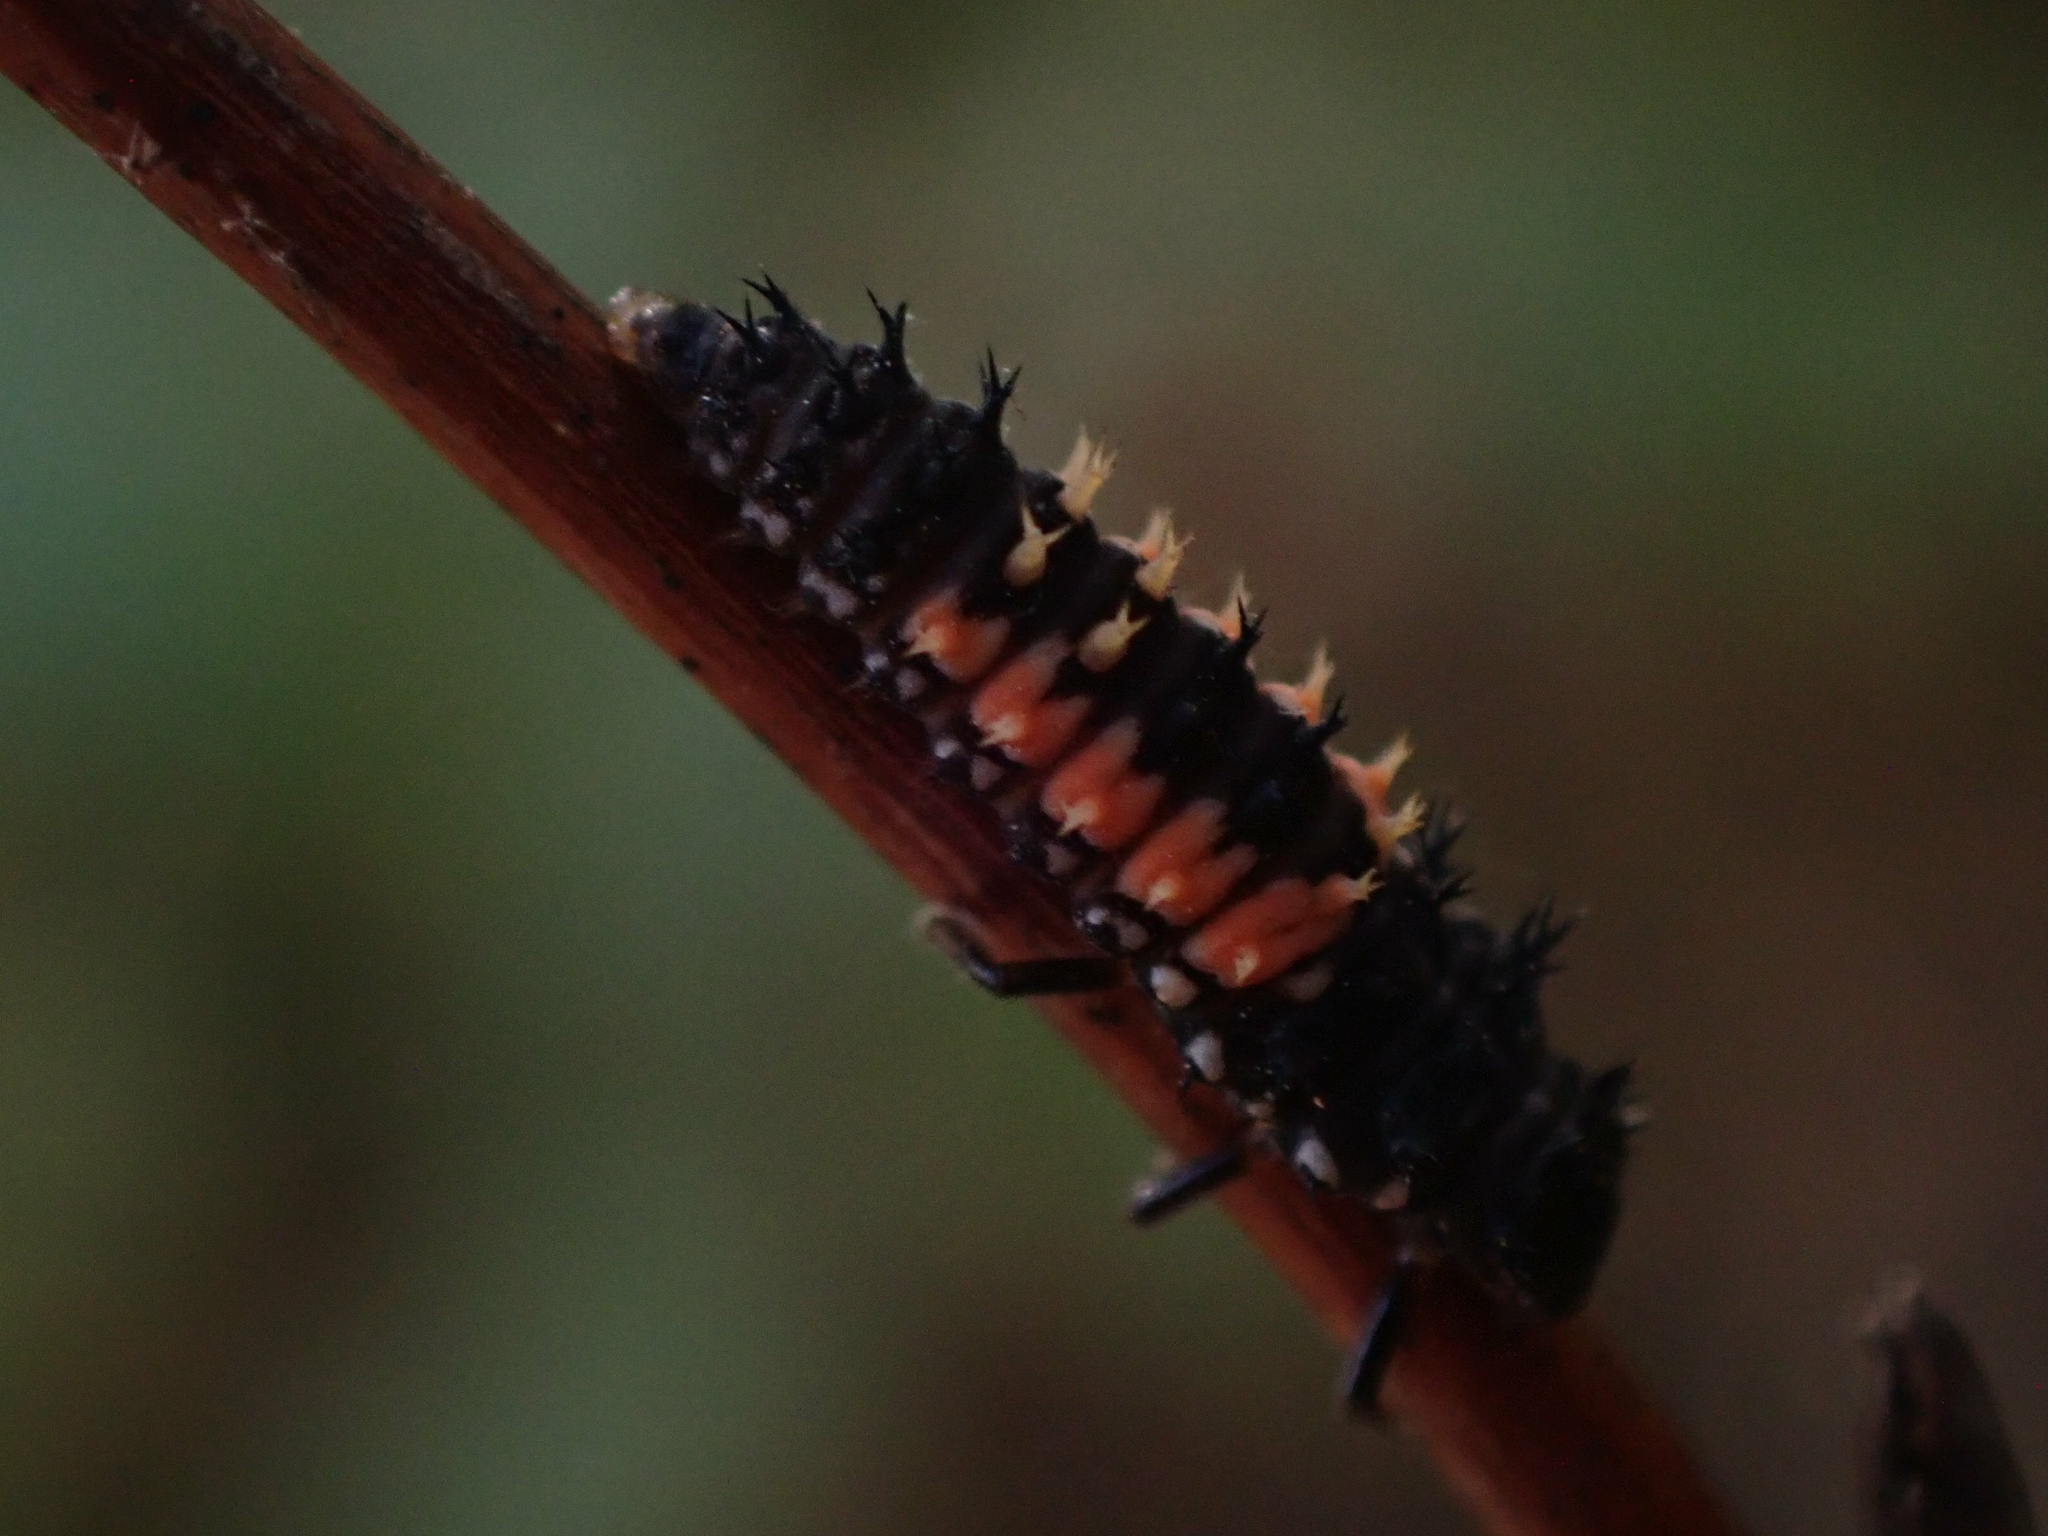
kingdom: Animalia
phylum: Arthropoda
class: Insecta
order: Coleoptera
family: Coccinellidae
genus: Harmonia
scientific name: Harmonia axyridis
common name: Harlequin ladybird
